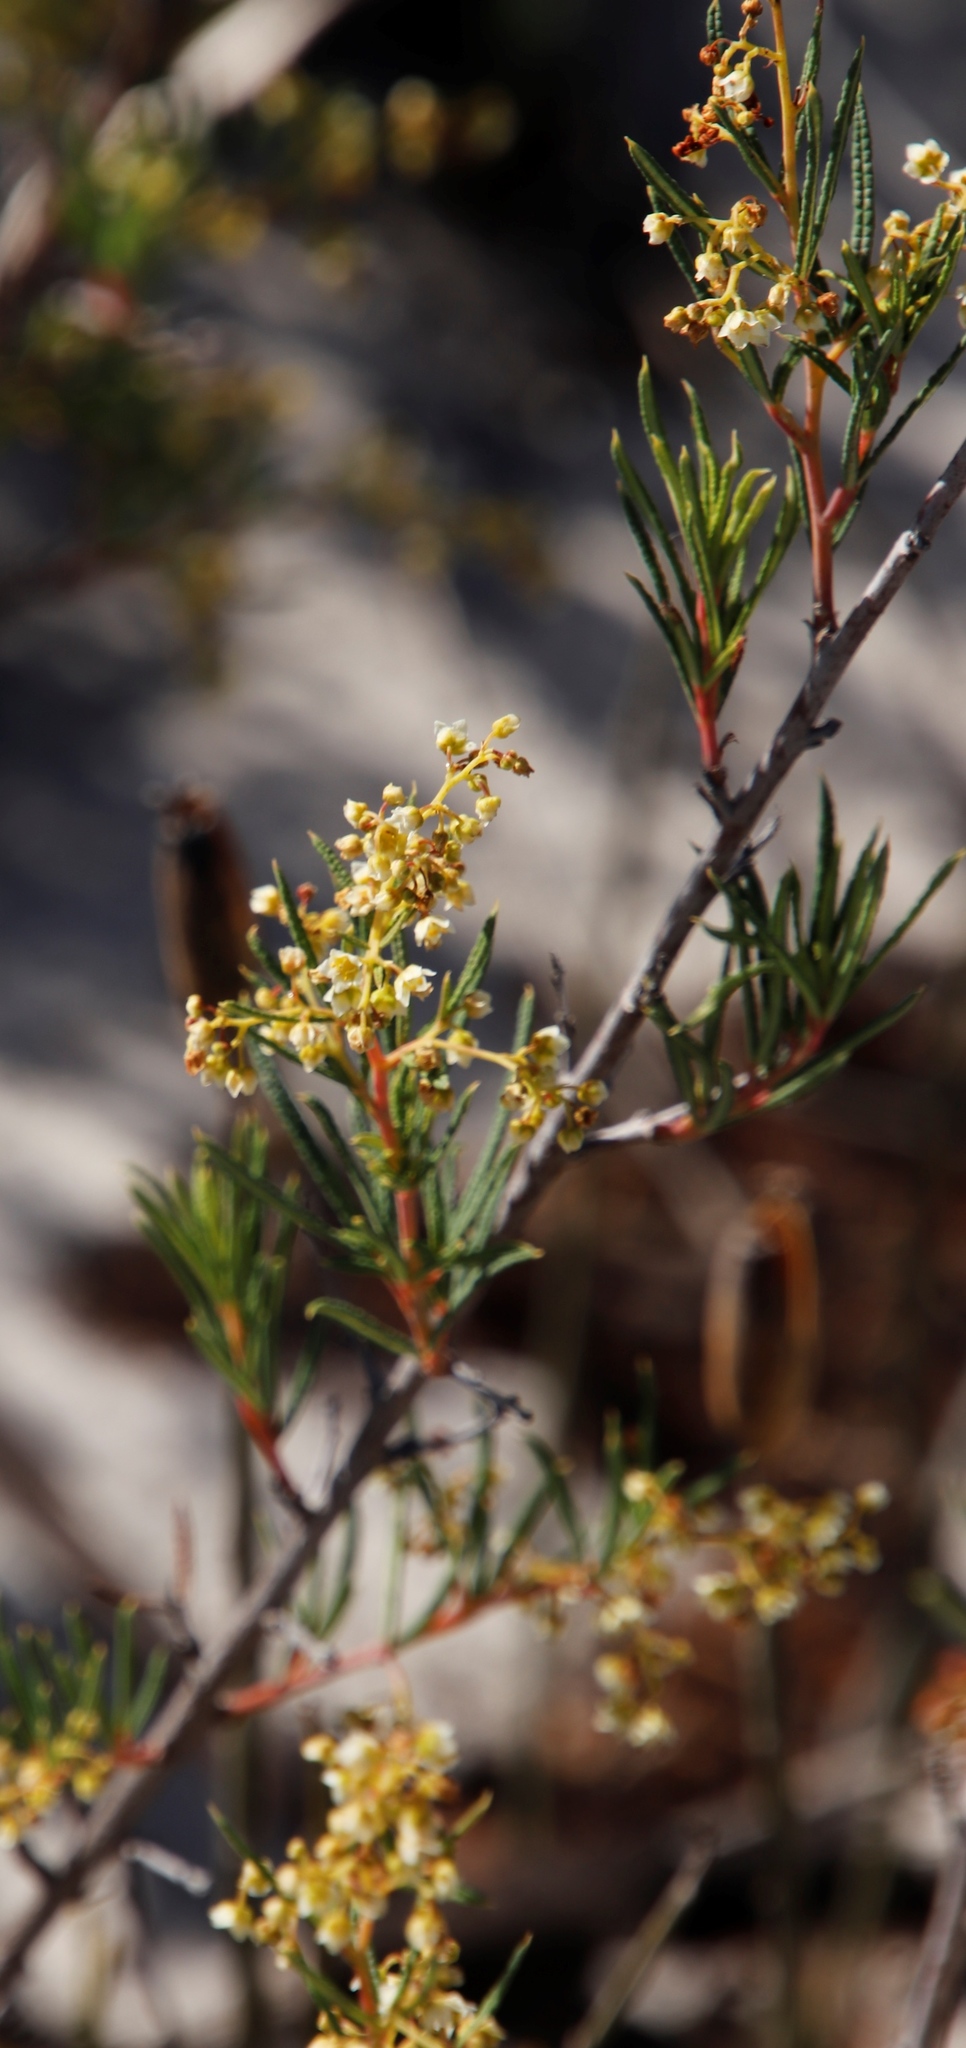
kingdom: Plantae
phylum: Tracheophyta
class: Magnoliopsida
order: Sapindales
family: Anacardiaceae
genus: Searsia
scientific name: Searsia rosmarinifolia
